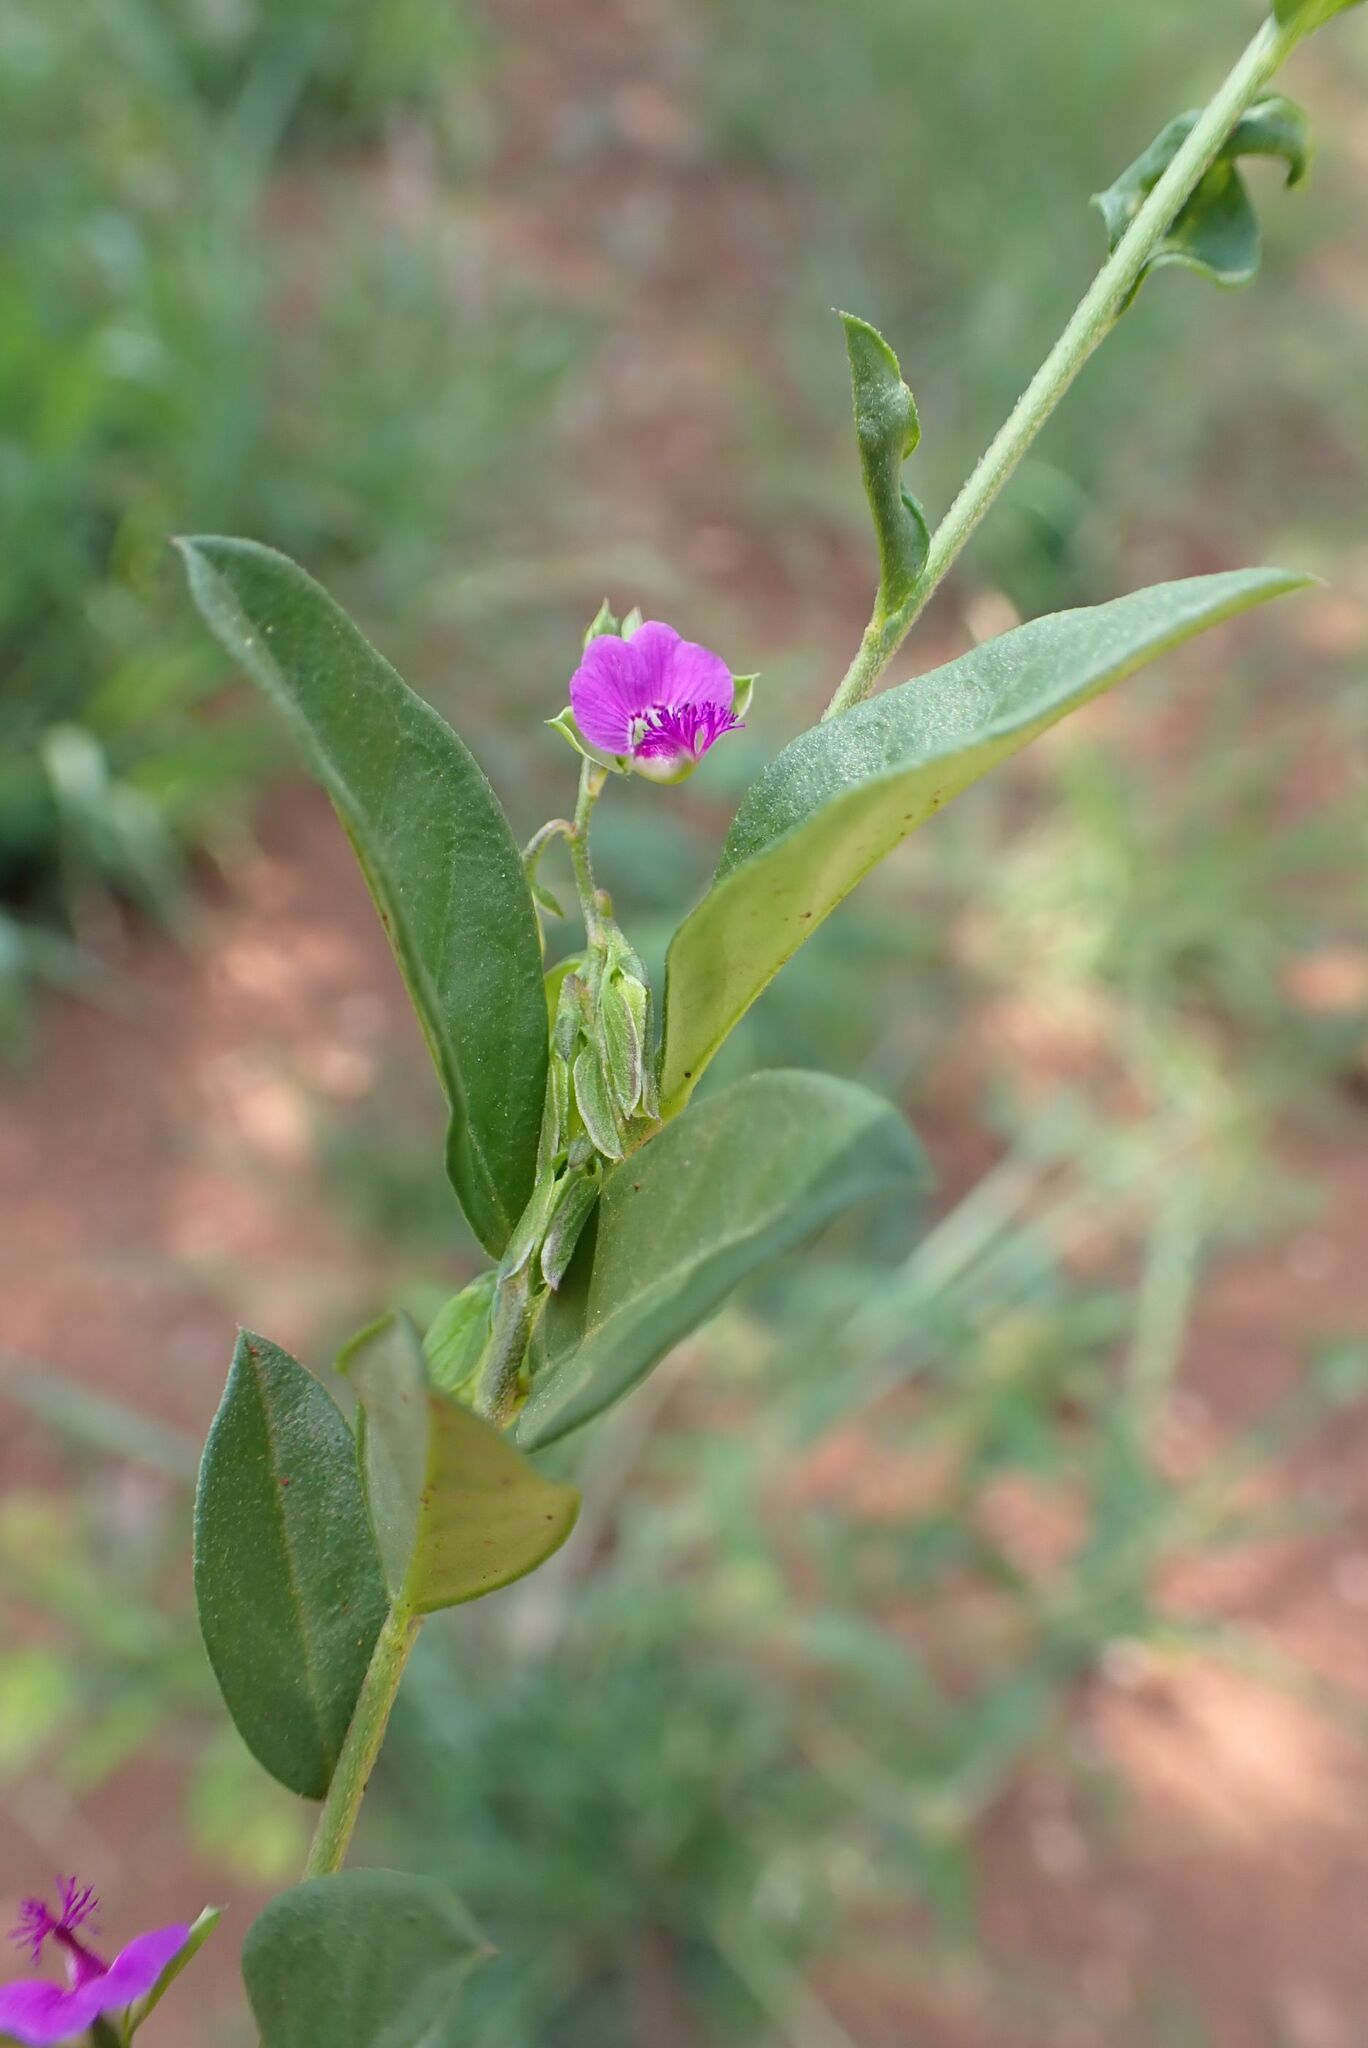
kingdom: Plantae
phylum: Tracheophyta
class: Magnoliopsida
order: Fabales
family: Polygalaceae
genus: Polygala
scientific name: Polygala transvaalensis
